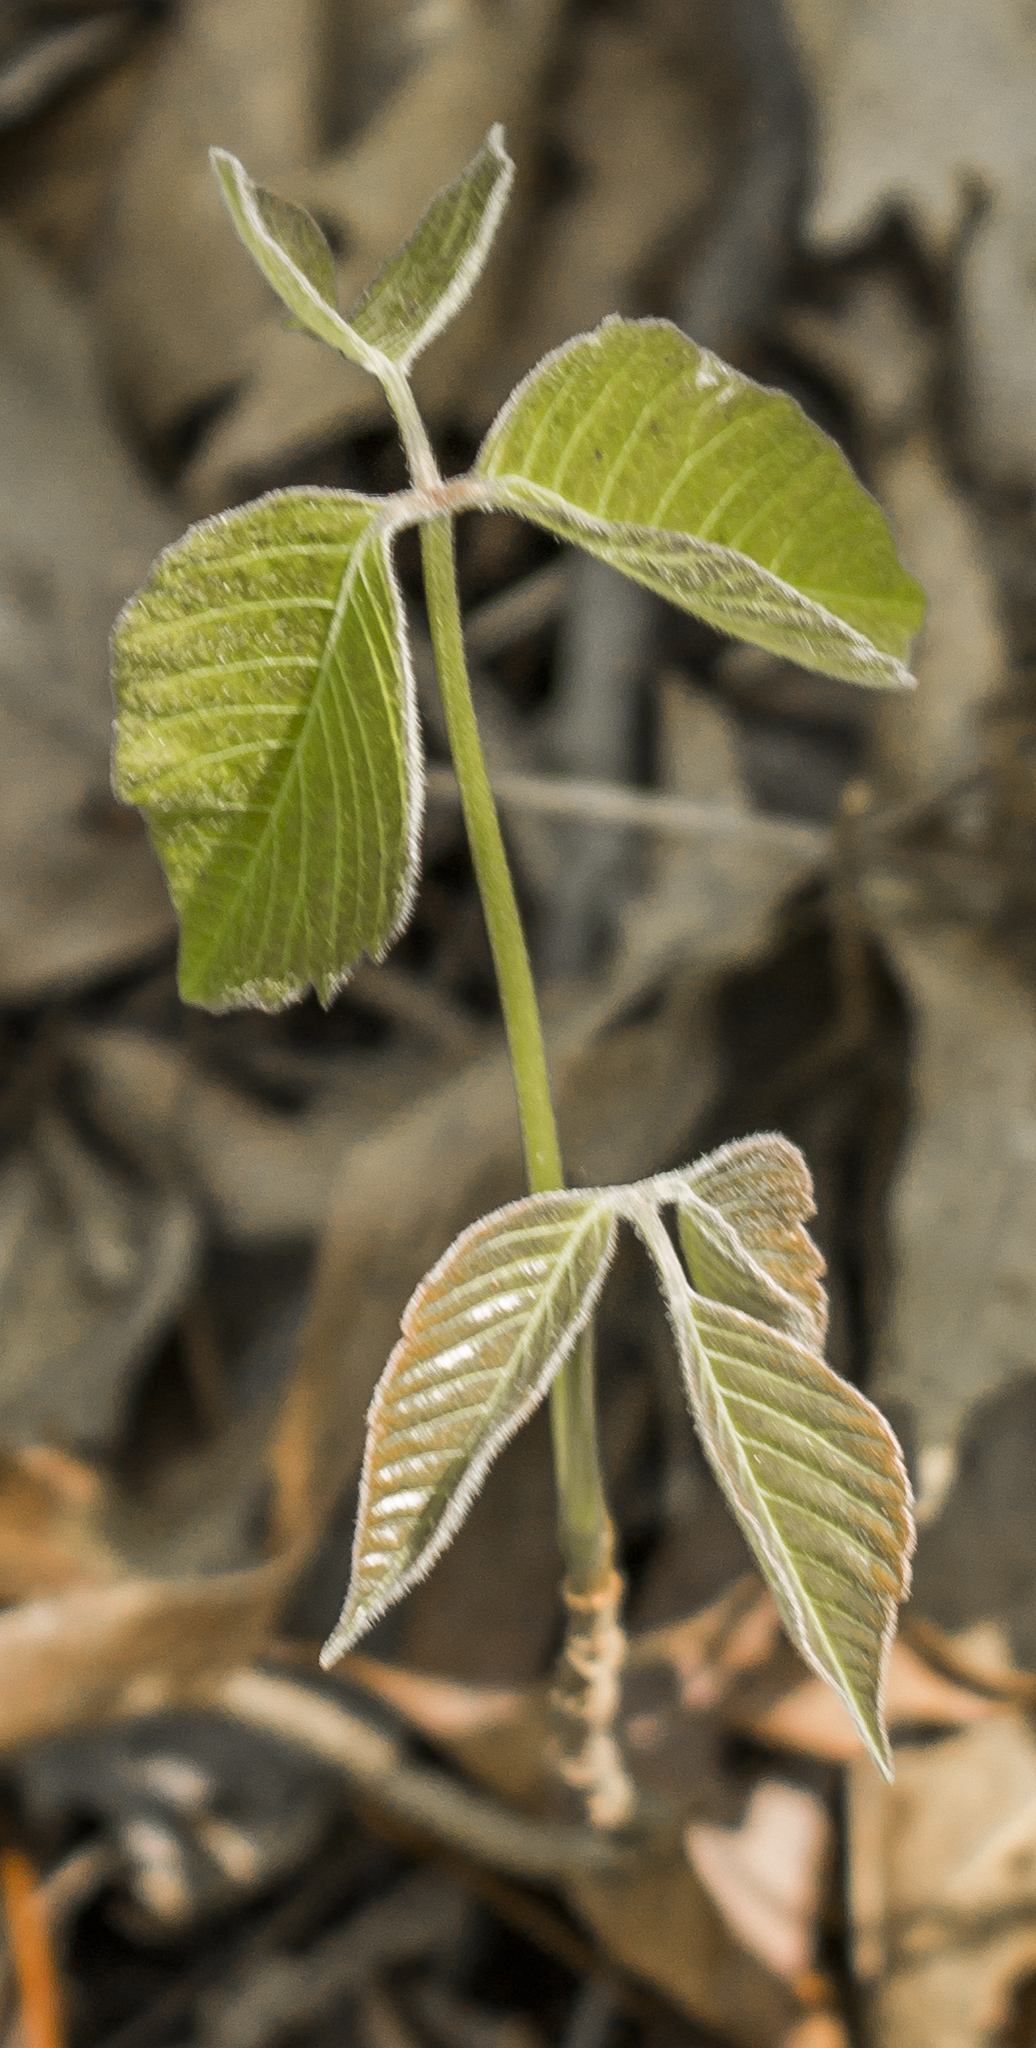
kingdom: Plantae
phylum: Tracheophyta
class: Magnoliopsida
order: Sapindales
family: Anacardiaceae
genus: Toxicodendron
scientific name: Toxicodendron rydbergii
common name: Rydberg's poison-ivy
